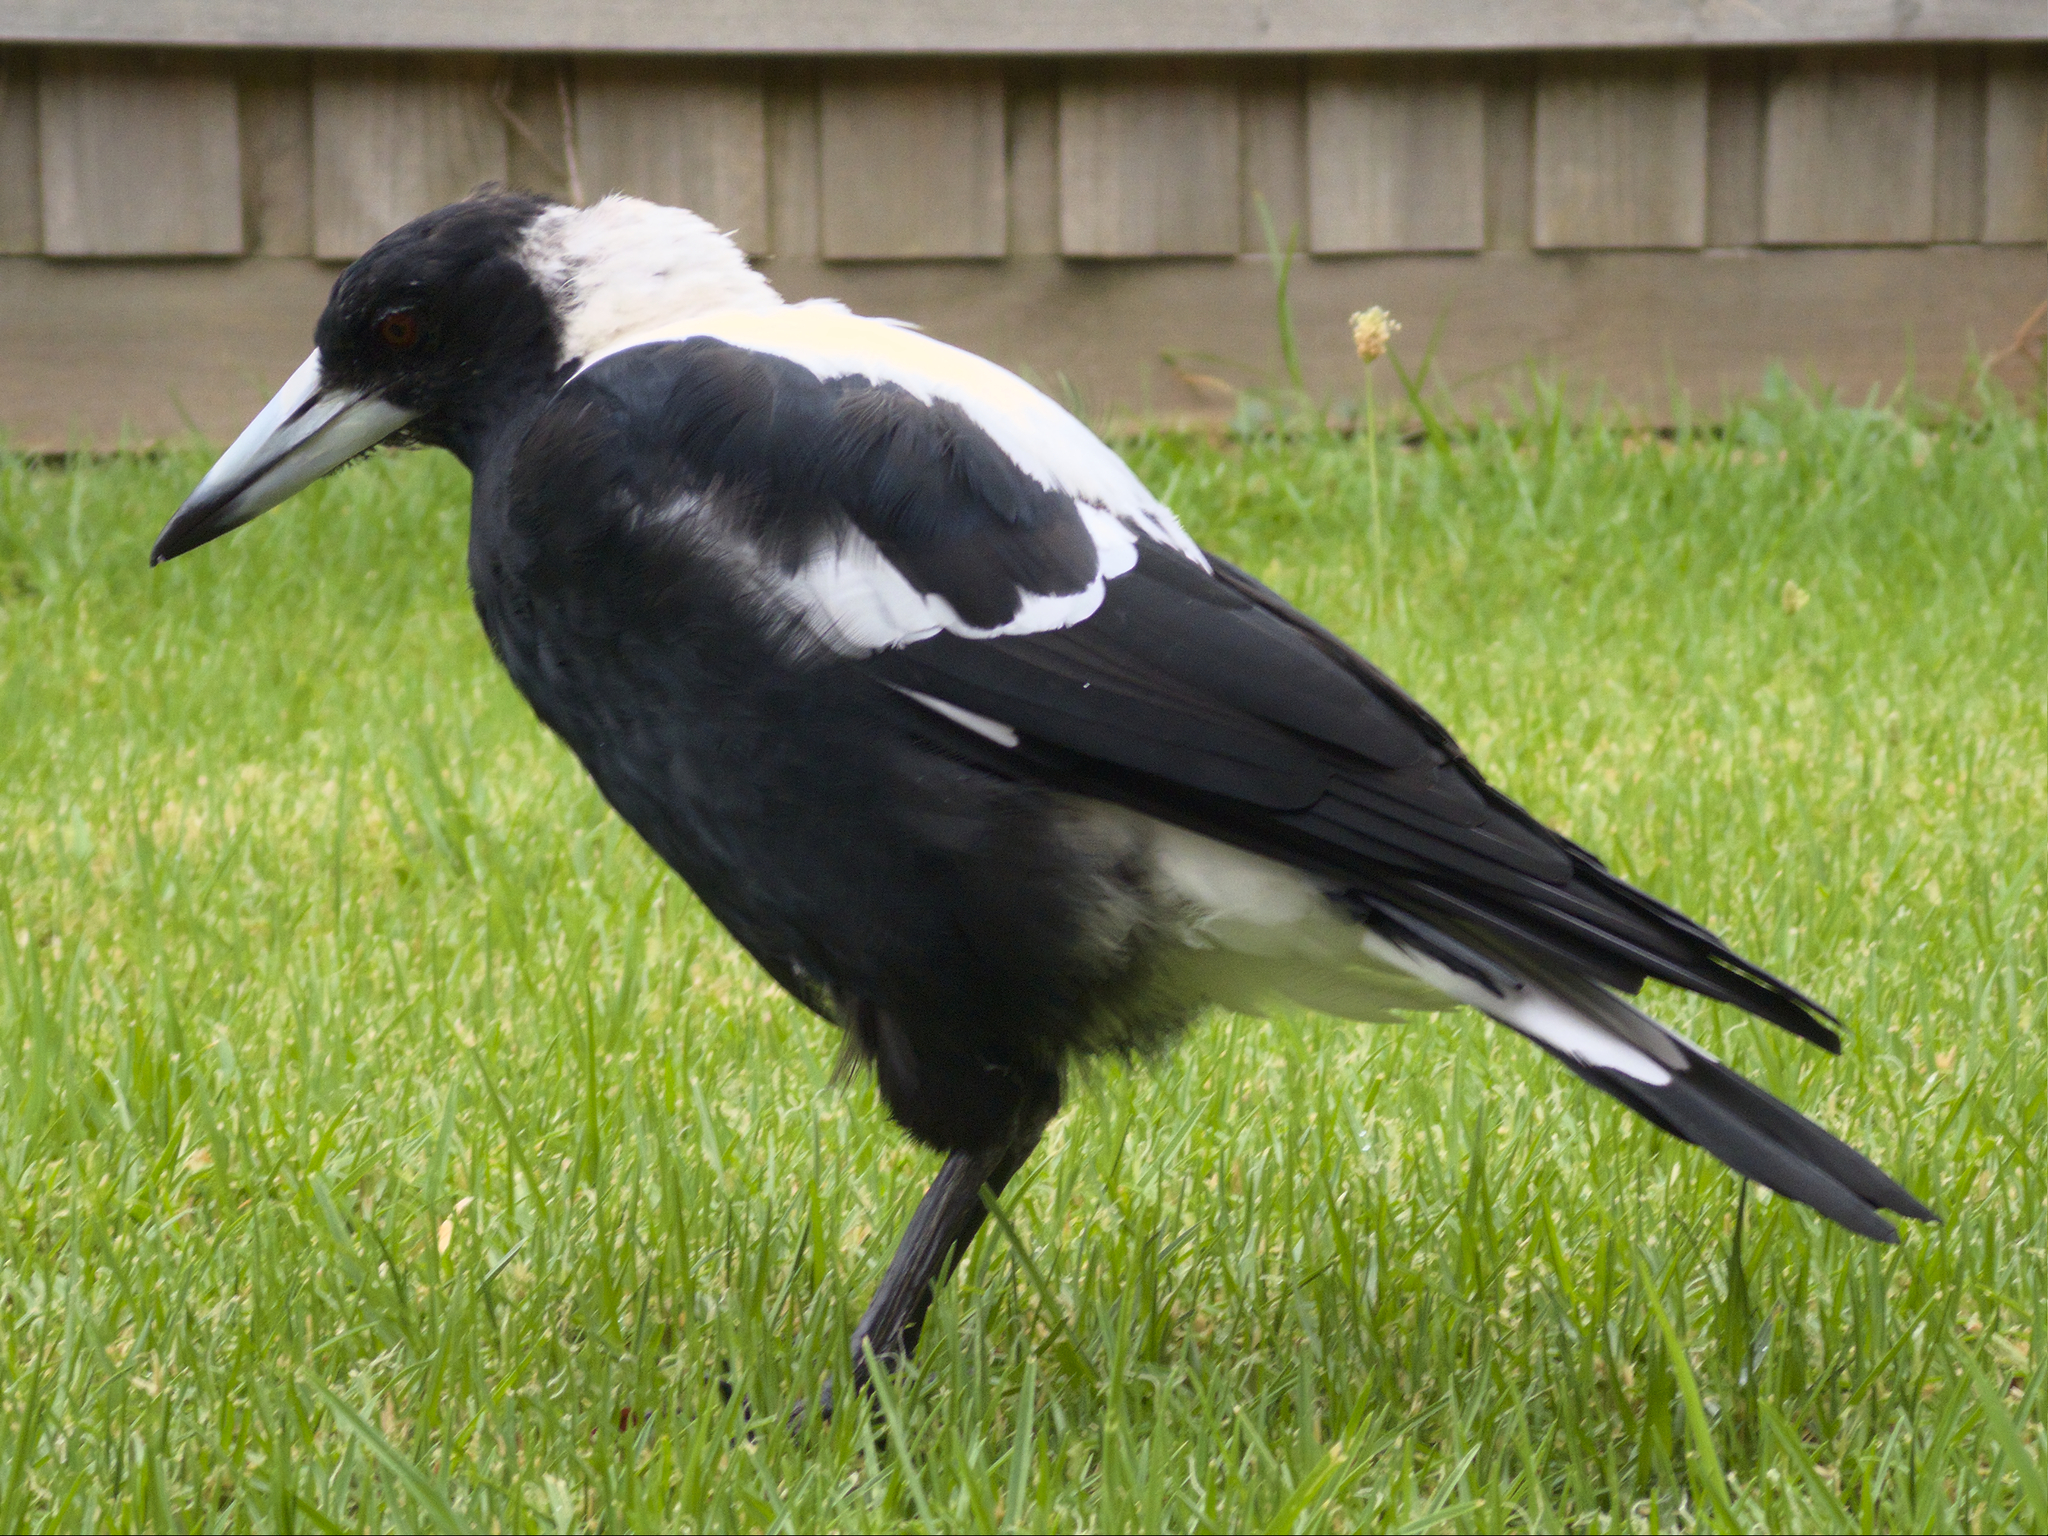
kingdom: Animalia
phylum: Chordata
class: Aves
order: Passeriformes
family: Cracticidae
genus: Gymnorhina
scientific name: Gymnorhina tibicen
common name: Australian magpie
